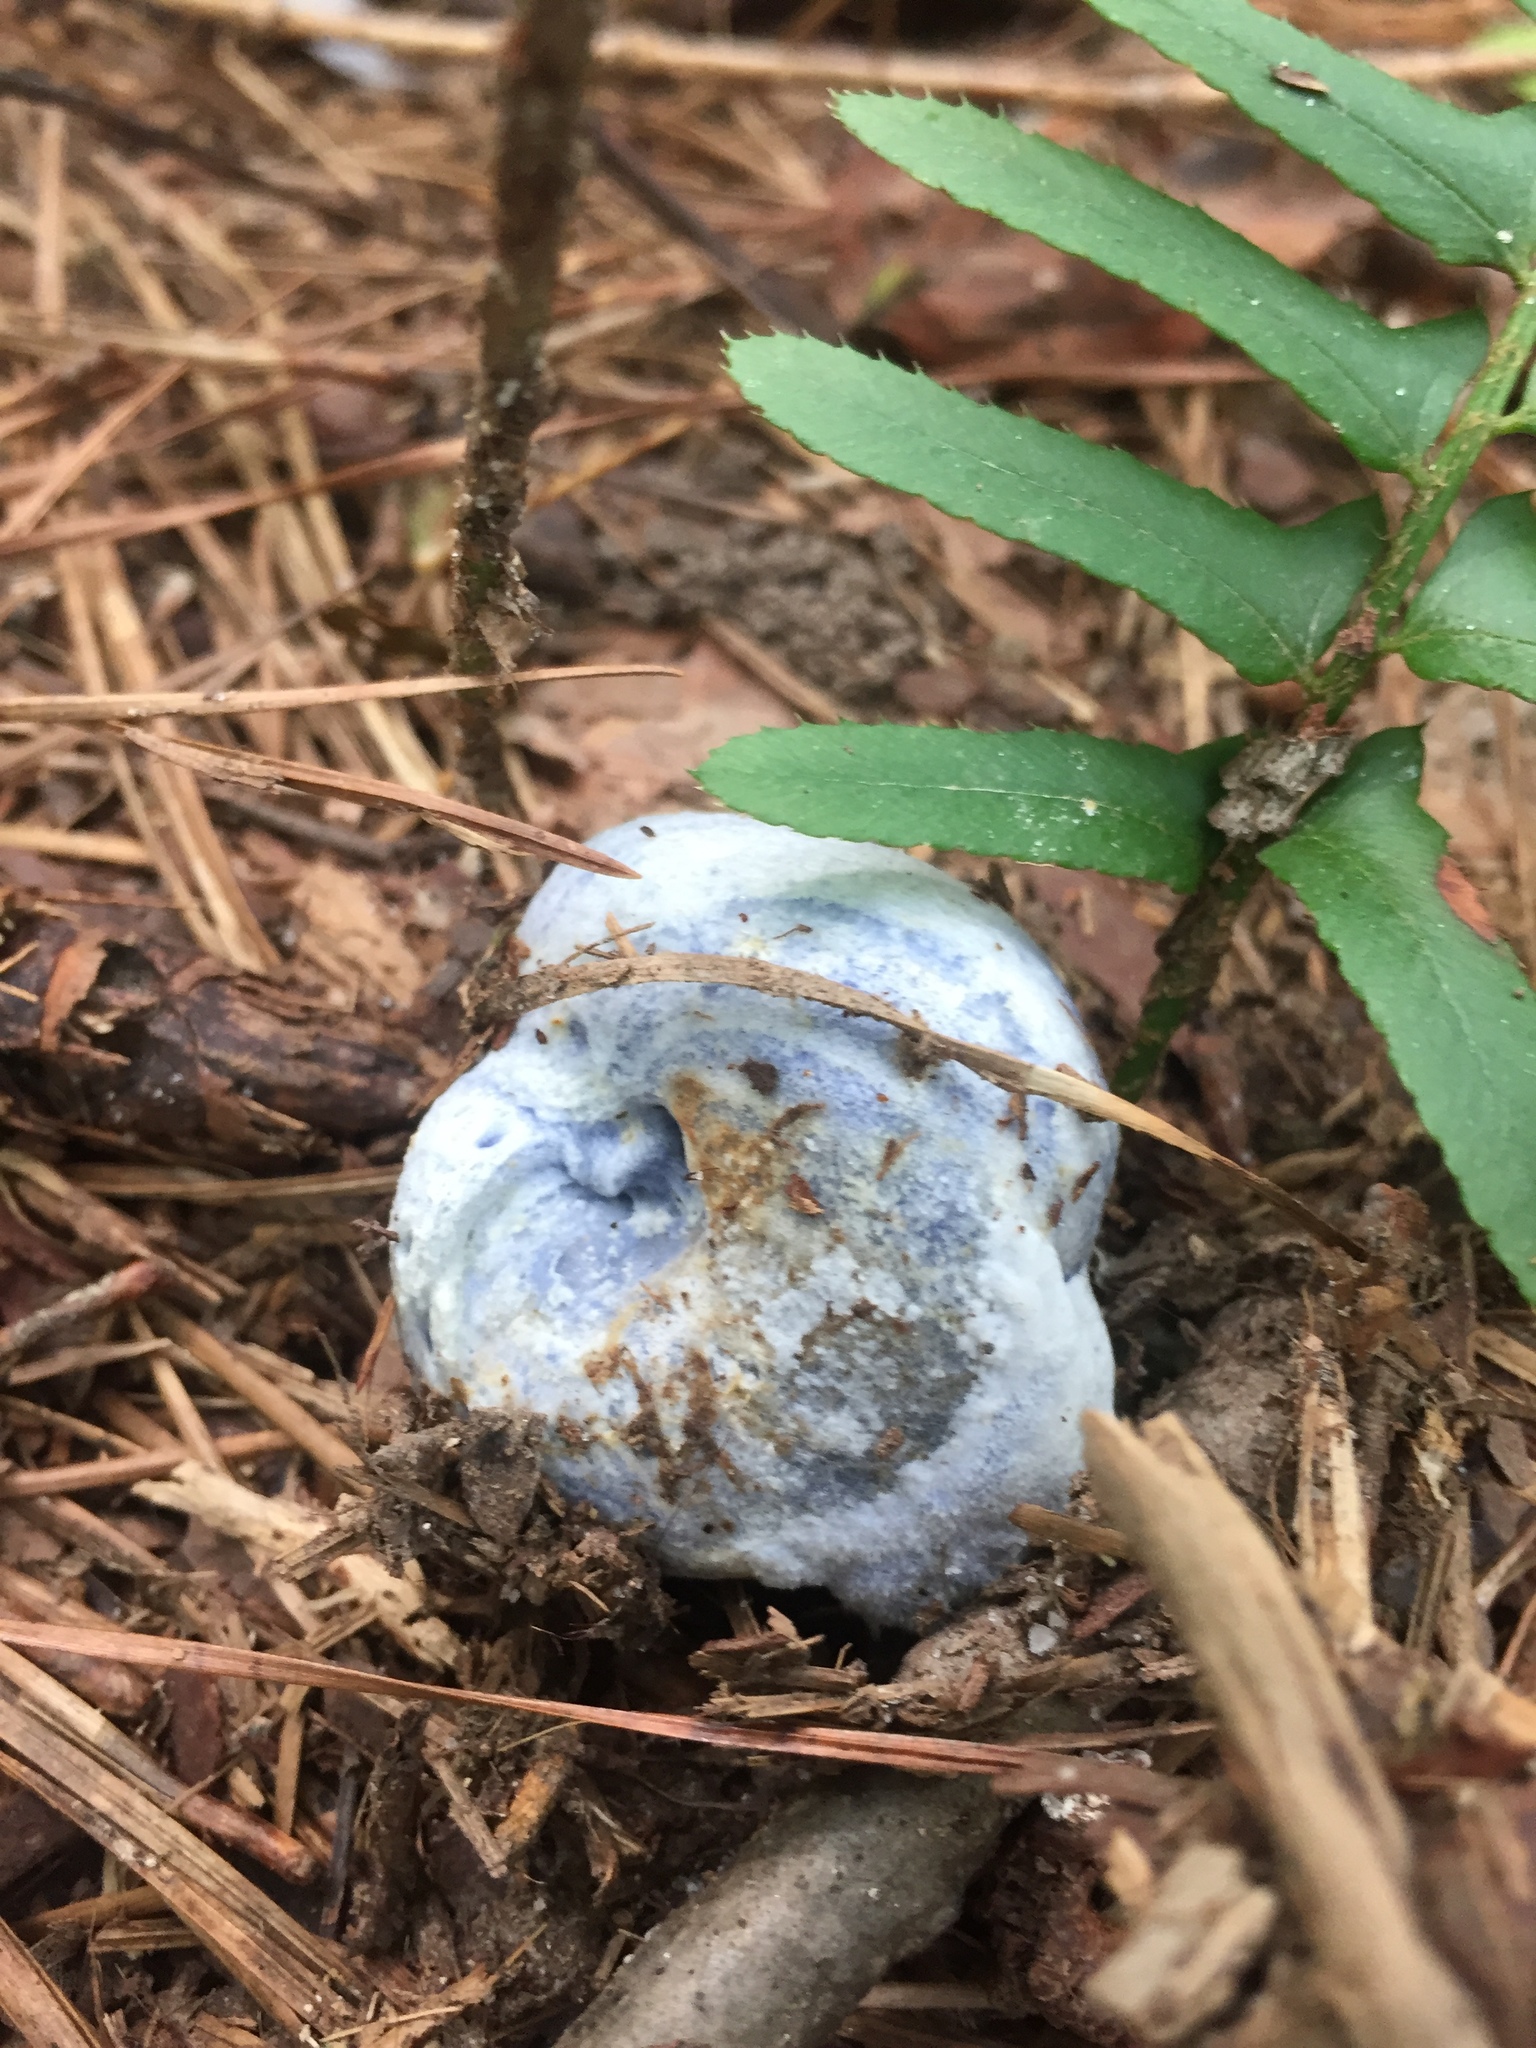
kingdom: Fungi
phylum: Basidiomycota
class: Agaricomycetes
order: Russulales
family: Russulaceae
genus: Lactarius
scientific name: Lactarius indigo
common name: Indigo milk cap
